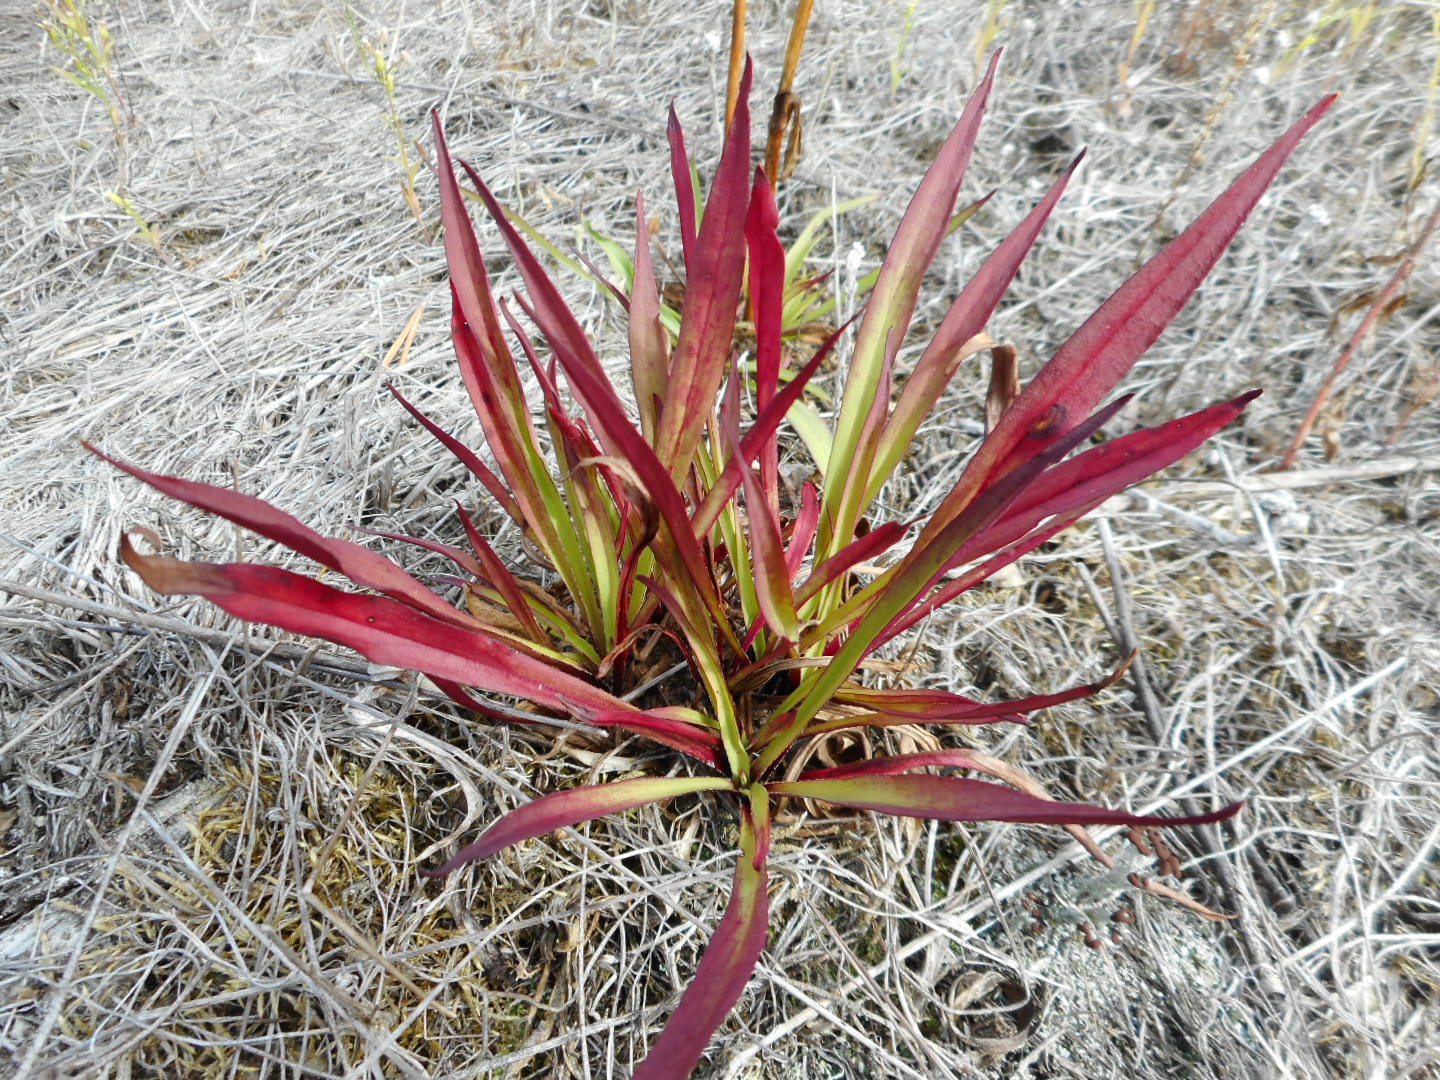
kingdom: Plantae
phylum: Tracheophyta
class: Magnoliopsida
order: Caryophyllales
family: Caryophyllaceae
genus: Viscaria
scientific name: Viscaria vulgaris
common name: Clammy campion
